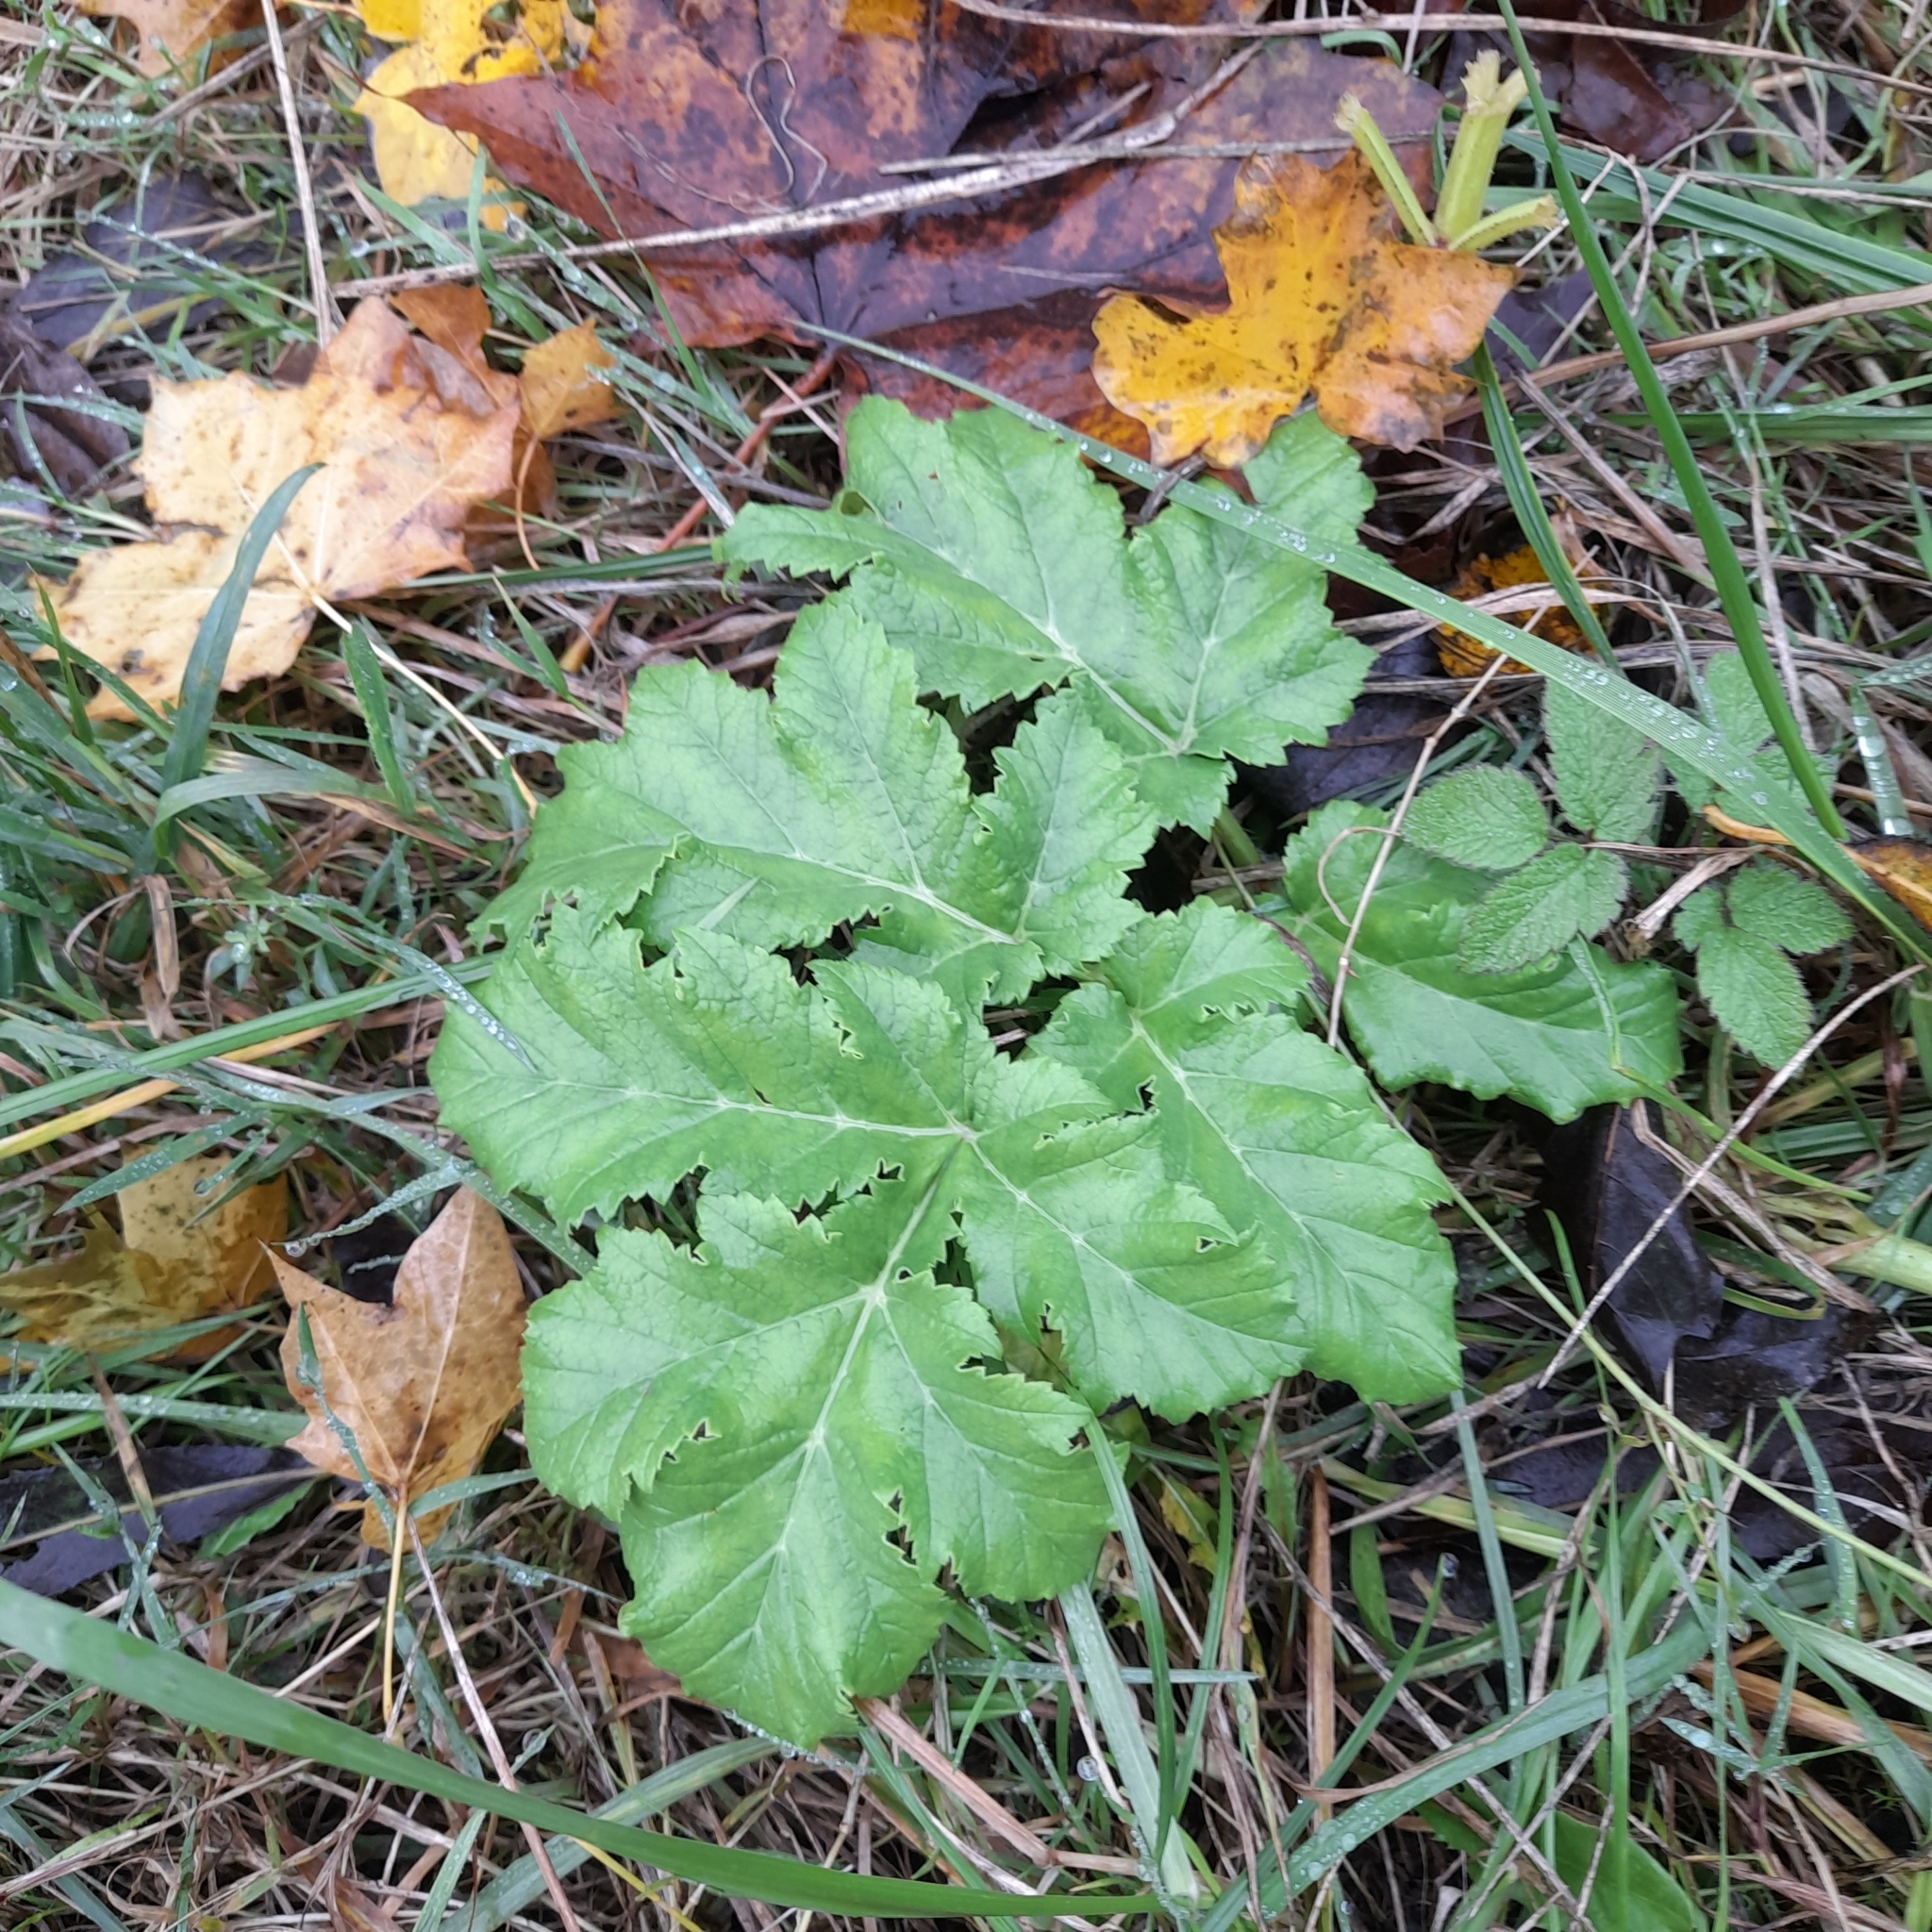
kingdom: Plantae
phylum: Tracheophyta
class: Magnoliopsida
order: Apiales
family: Apiaceae
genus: Heracleum
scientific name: Heracleum sosnowskyi
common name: Sosnowsky's hogweed
